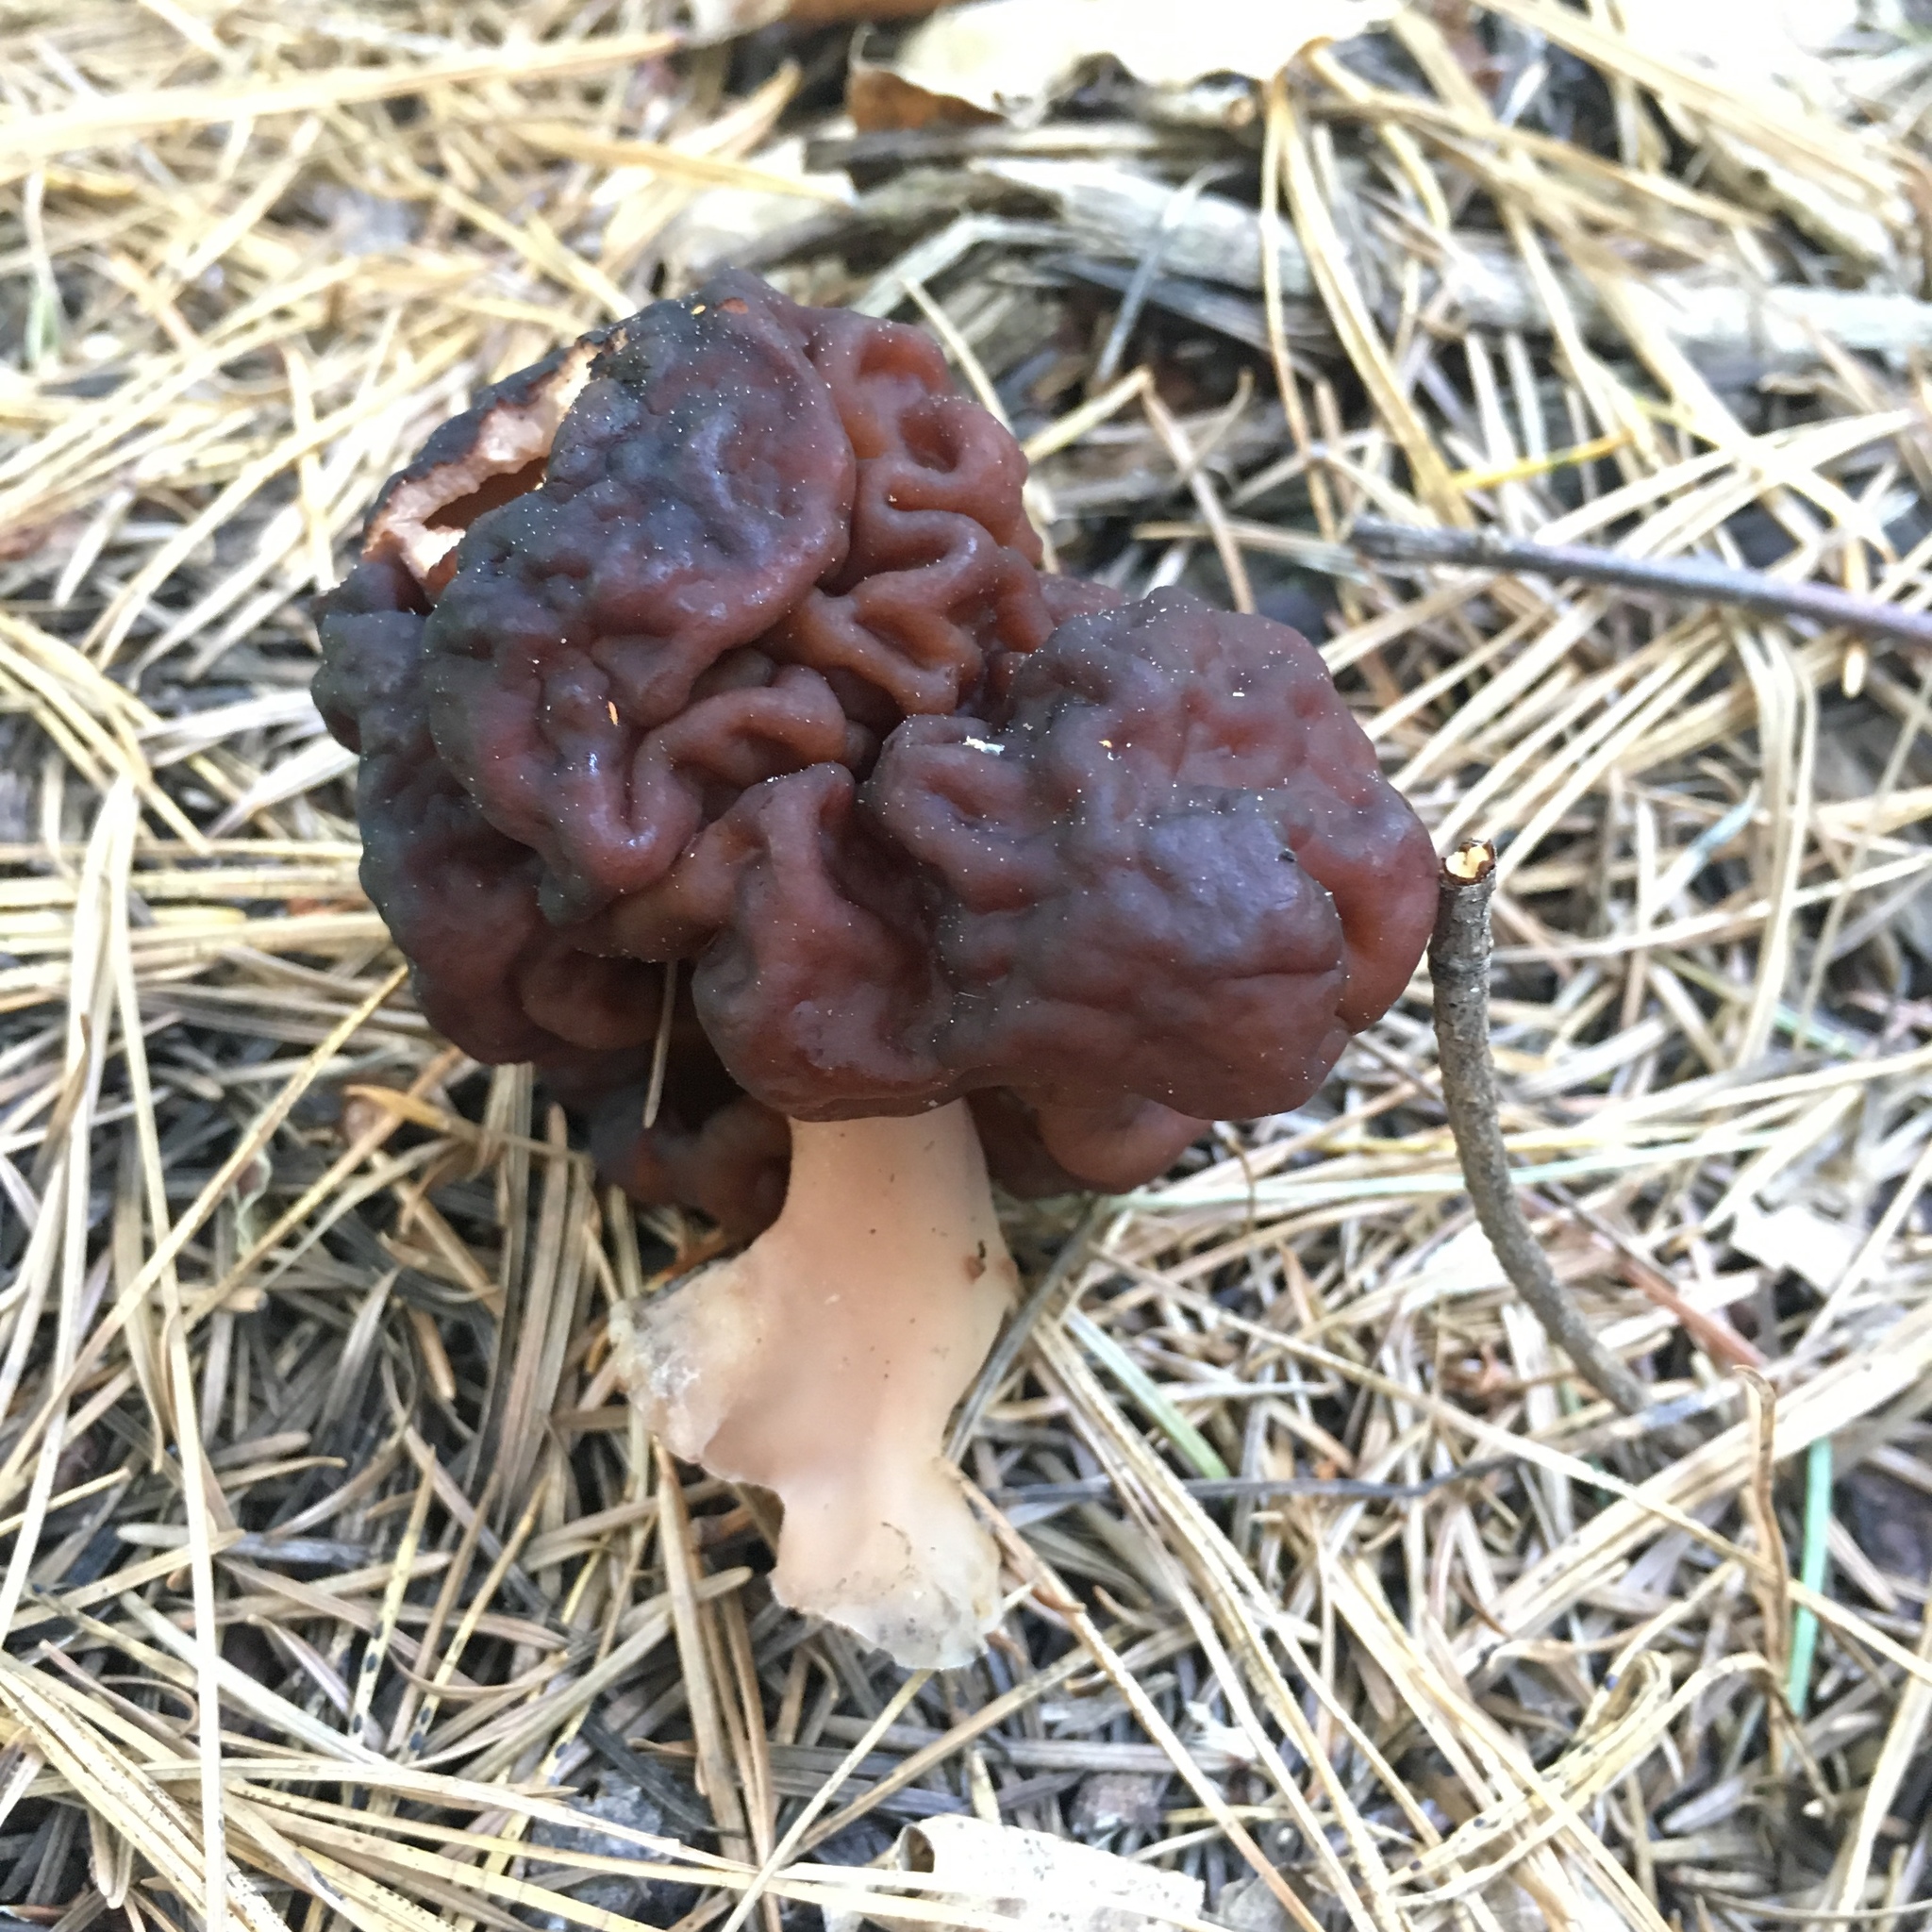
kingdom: Fungi
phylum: Ascomycota
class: Pezizomycetes
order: Pezizales
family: Discinaceae
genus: Gyromitra
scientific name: Gyromitra esculenta
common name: False morel
